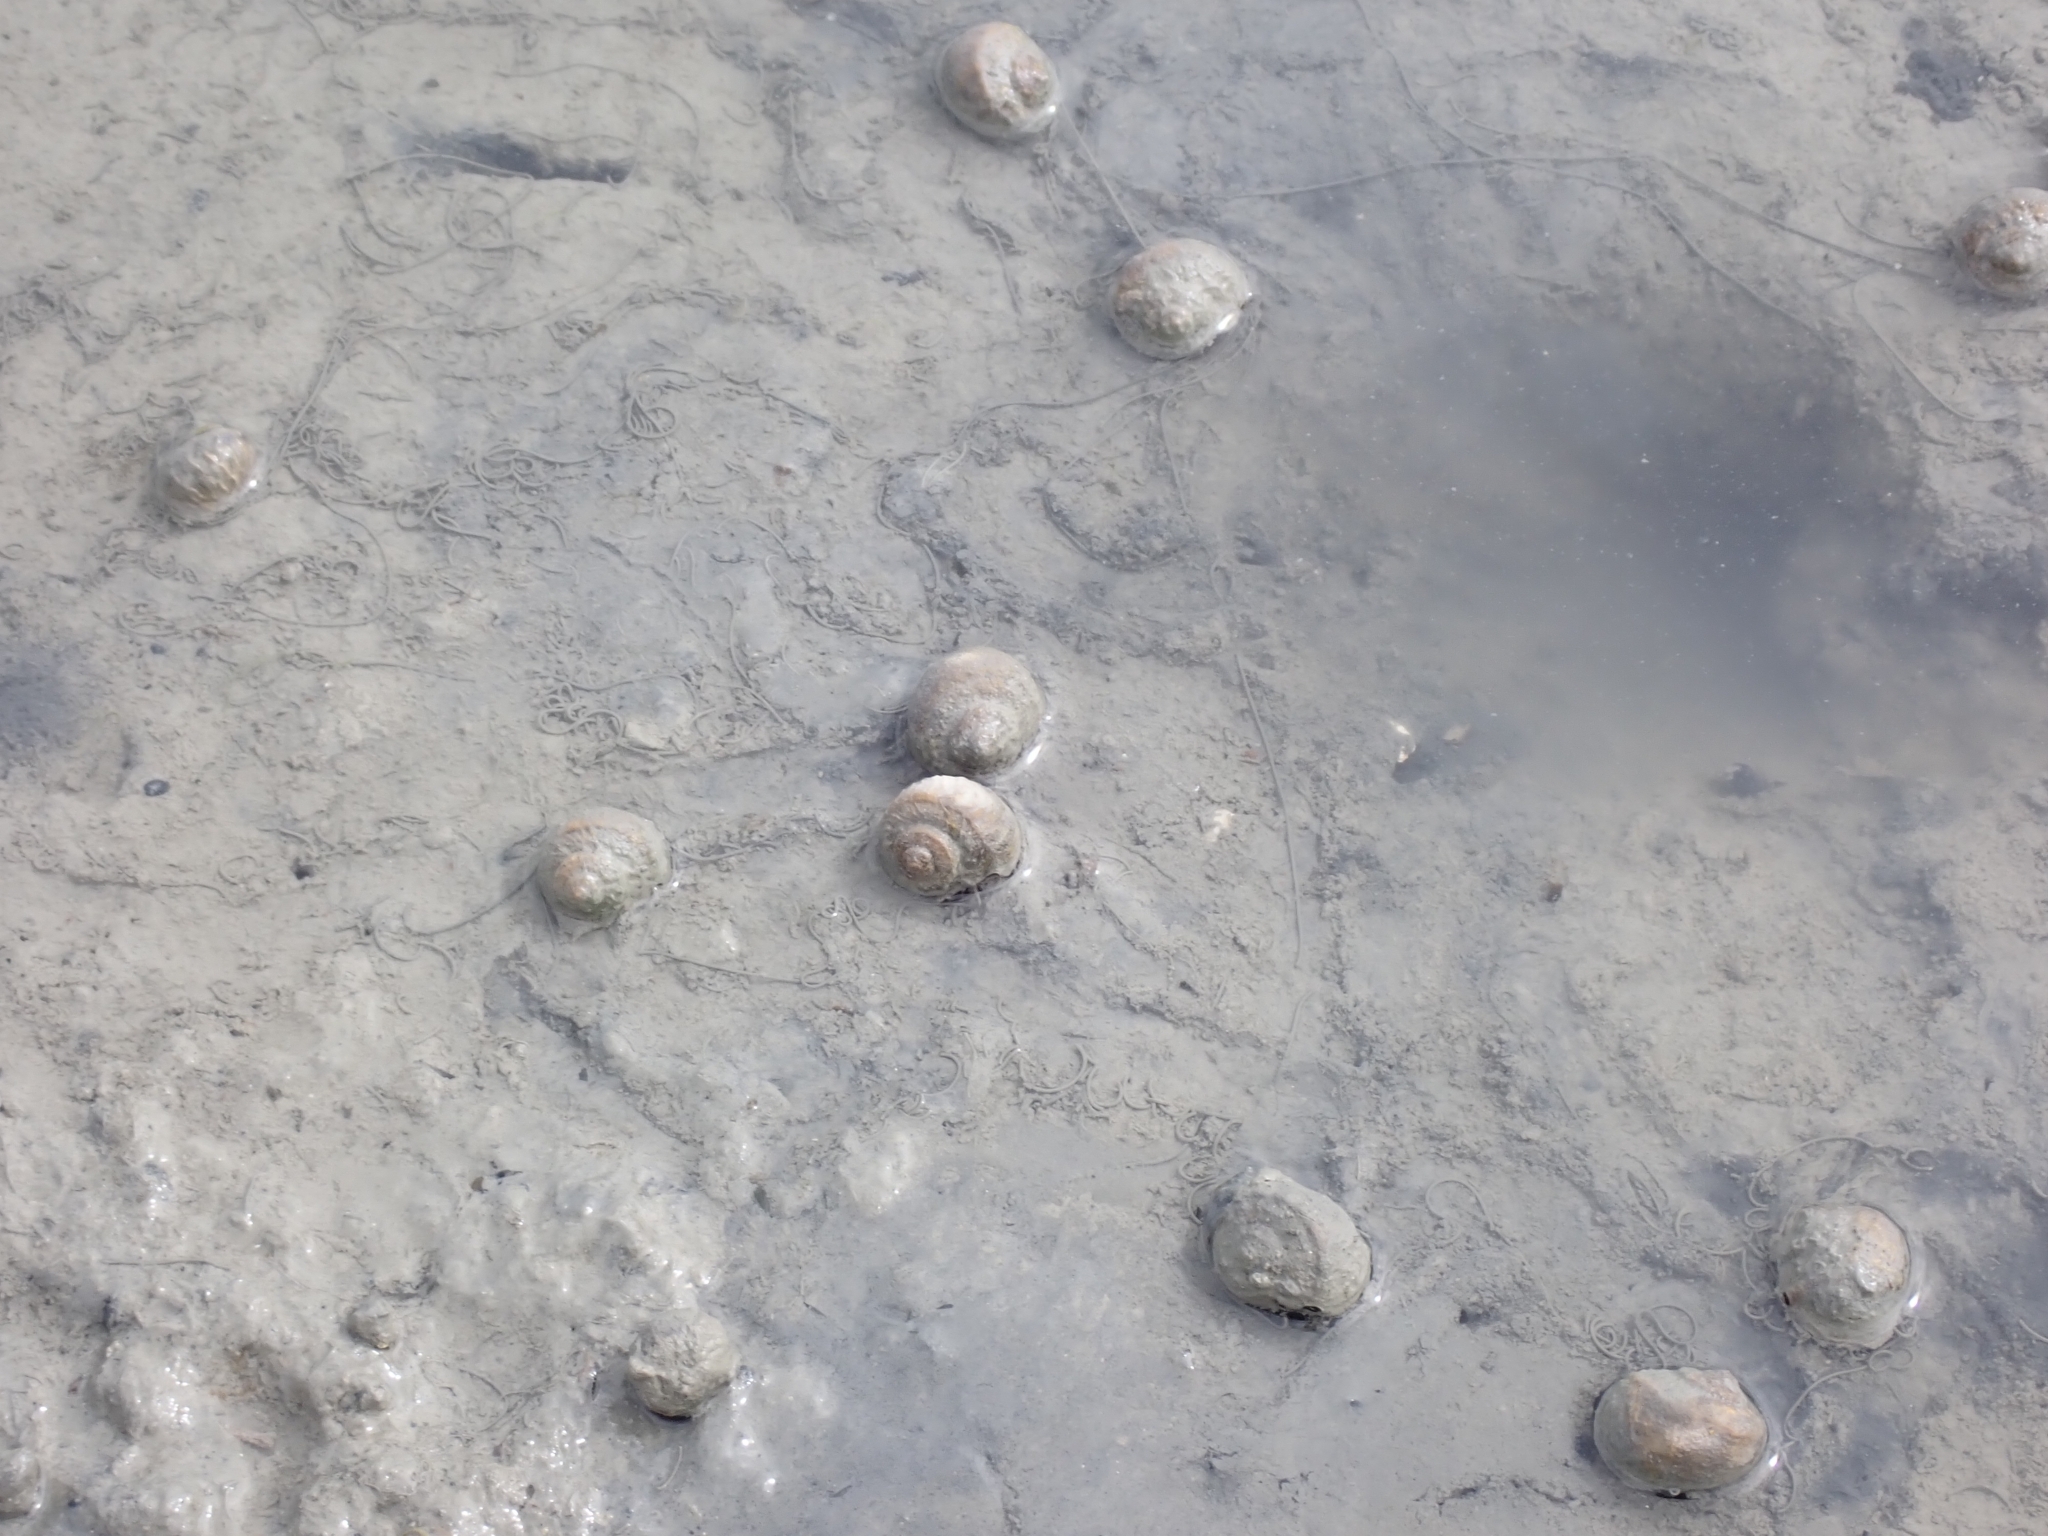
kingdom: Animalia
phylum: Mollusca
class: Gastropoda
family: Amphibolidae
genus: Amphibola
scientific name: Amphibola crenata
